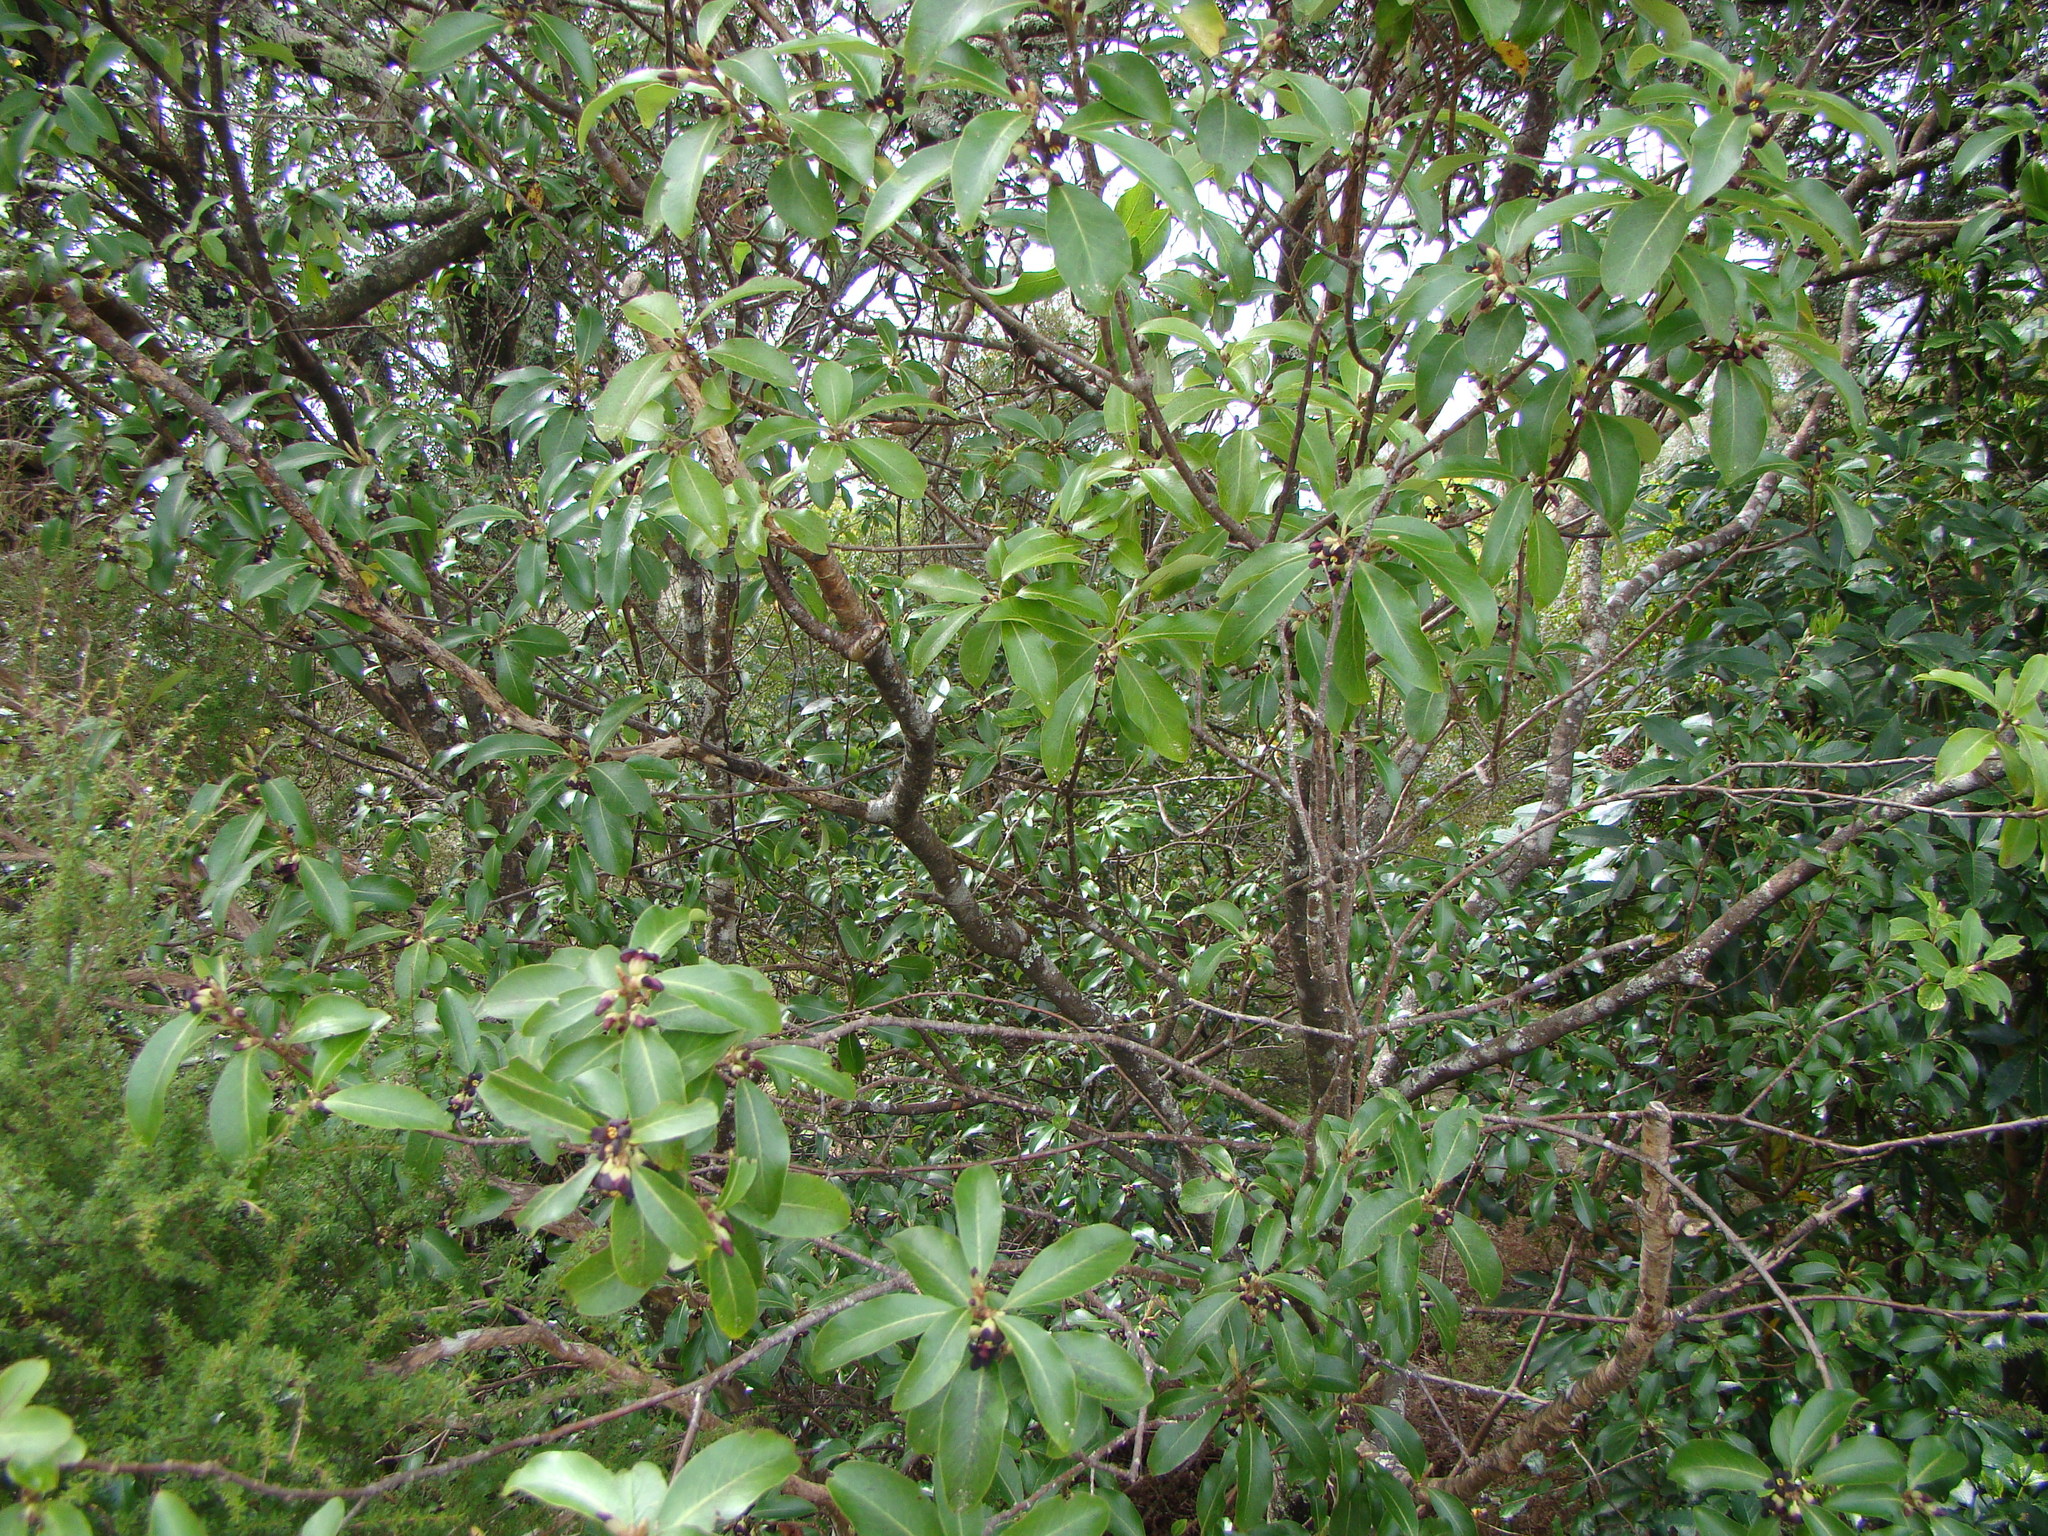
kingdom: Plantae
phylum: Tracheophyta
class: Magnoliopsida
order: Apiales
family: Pittosporaceae
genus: Pittosporum
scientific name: Pittosporum colensoi
